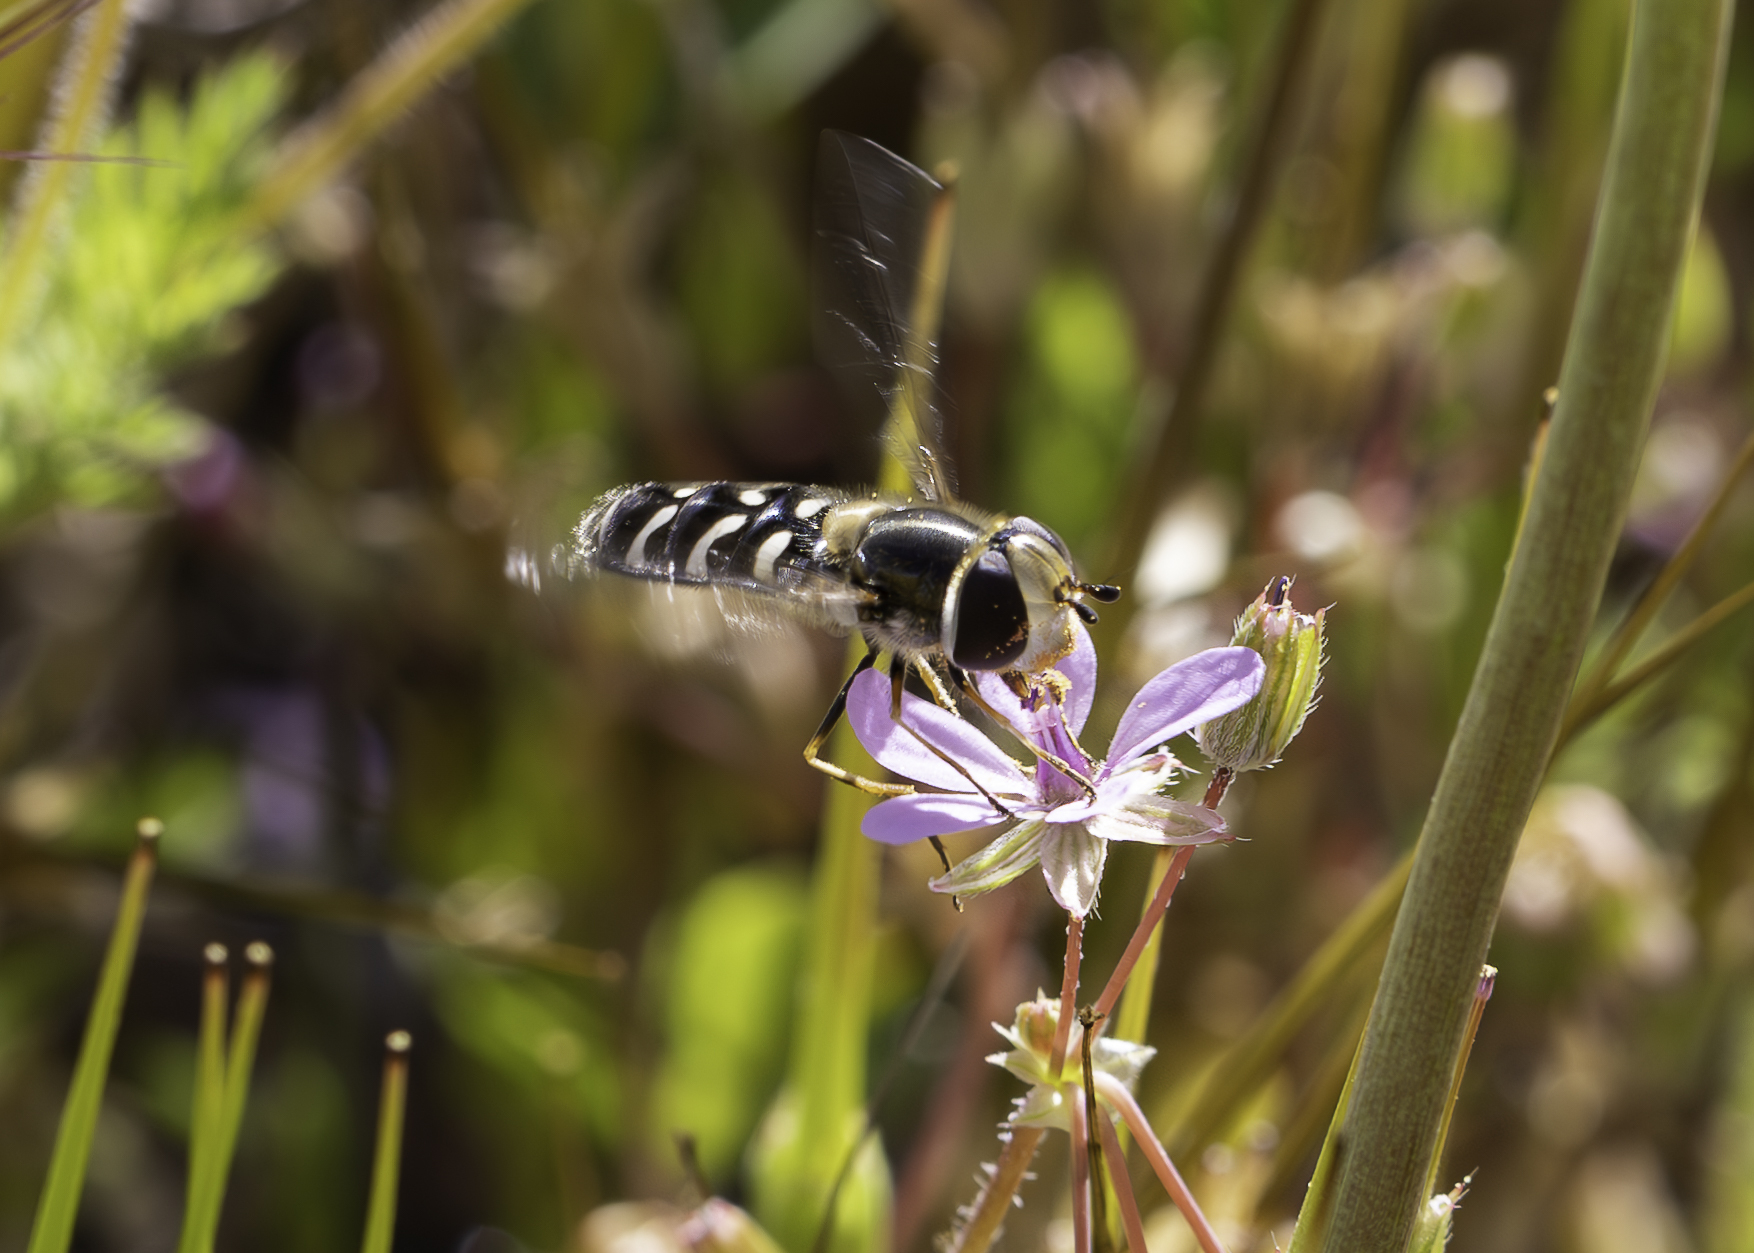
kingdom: Animalia
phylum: Arthropoda
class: Insecta
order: Diptera
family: Syrphidae
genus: Scaeva
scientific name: Scaeva affinis
